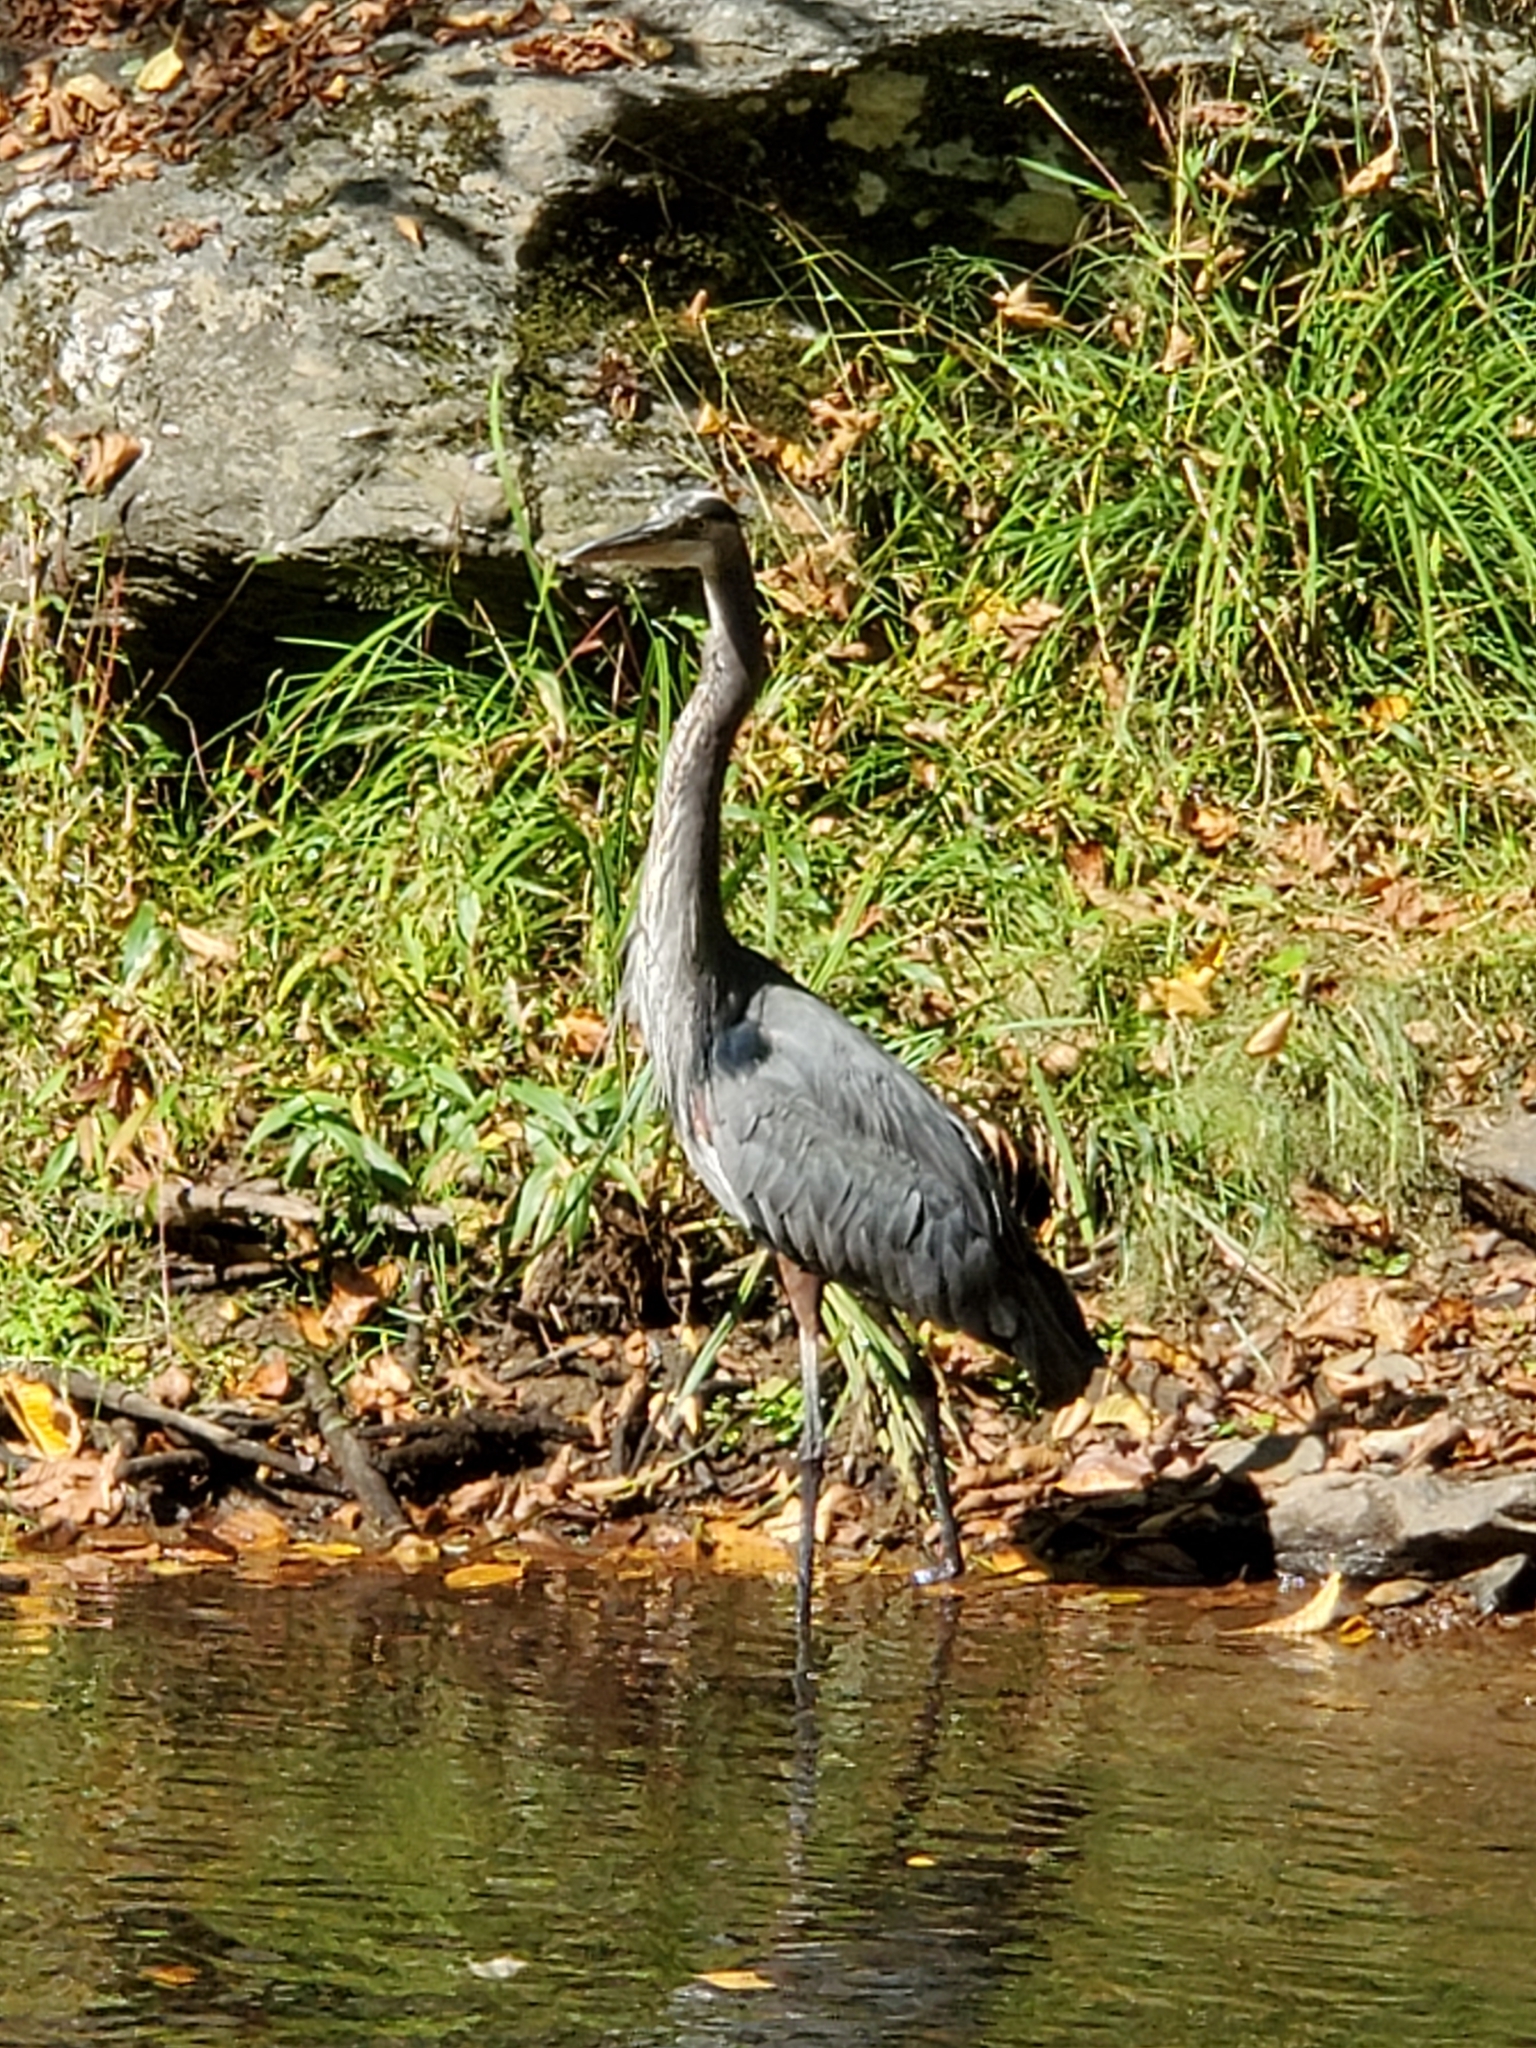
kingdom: Animalia
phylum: Chordata
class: Aves
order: Pelecaniformes
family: Ardeidae
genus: Ardea
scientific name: Ardea herodias
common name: Great blue heron
